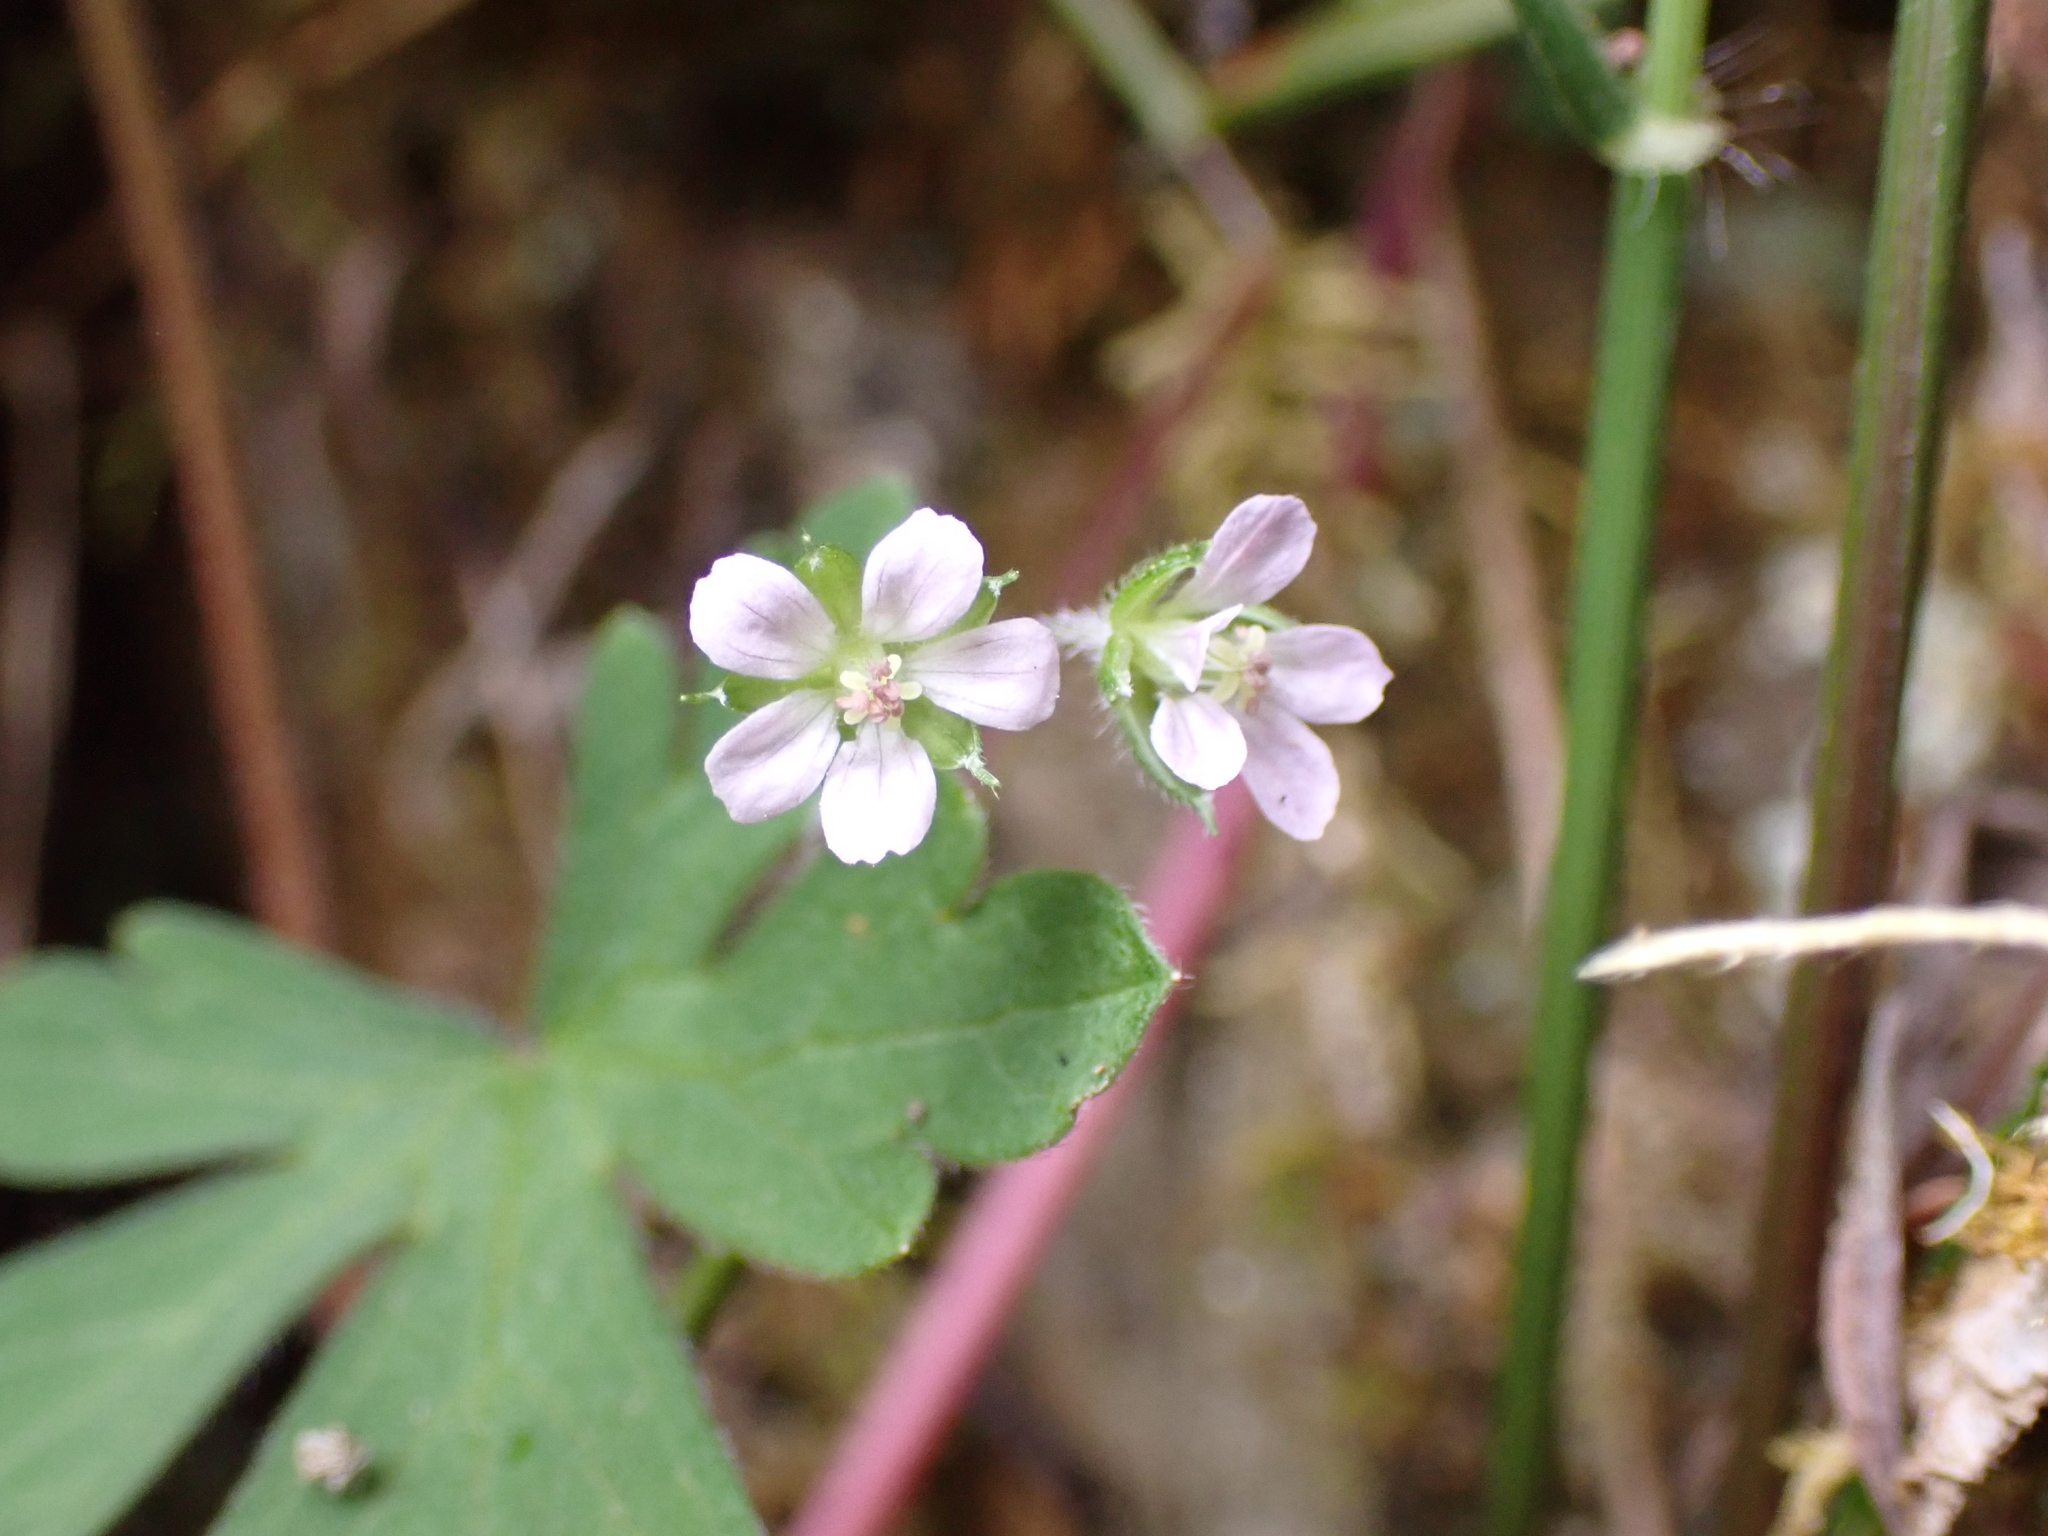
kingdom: Plantae
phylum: Tracheophyta
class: Magnoliopsida
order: Geraniales
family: Geraniaceae
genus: Geranium
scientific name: Geranium homeanum
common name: Australasian geranium
